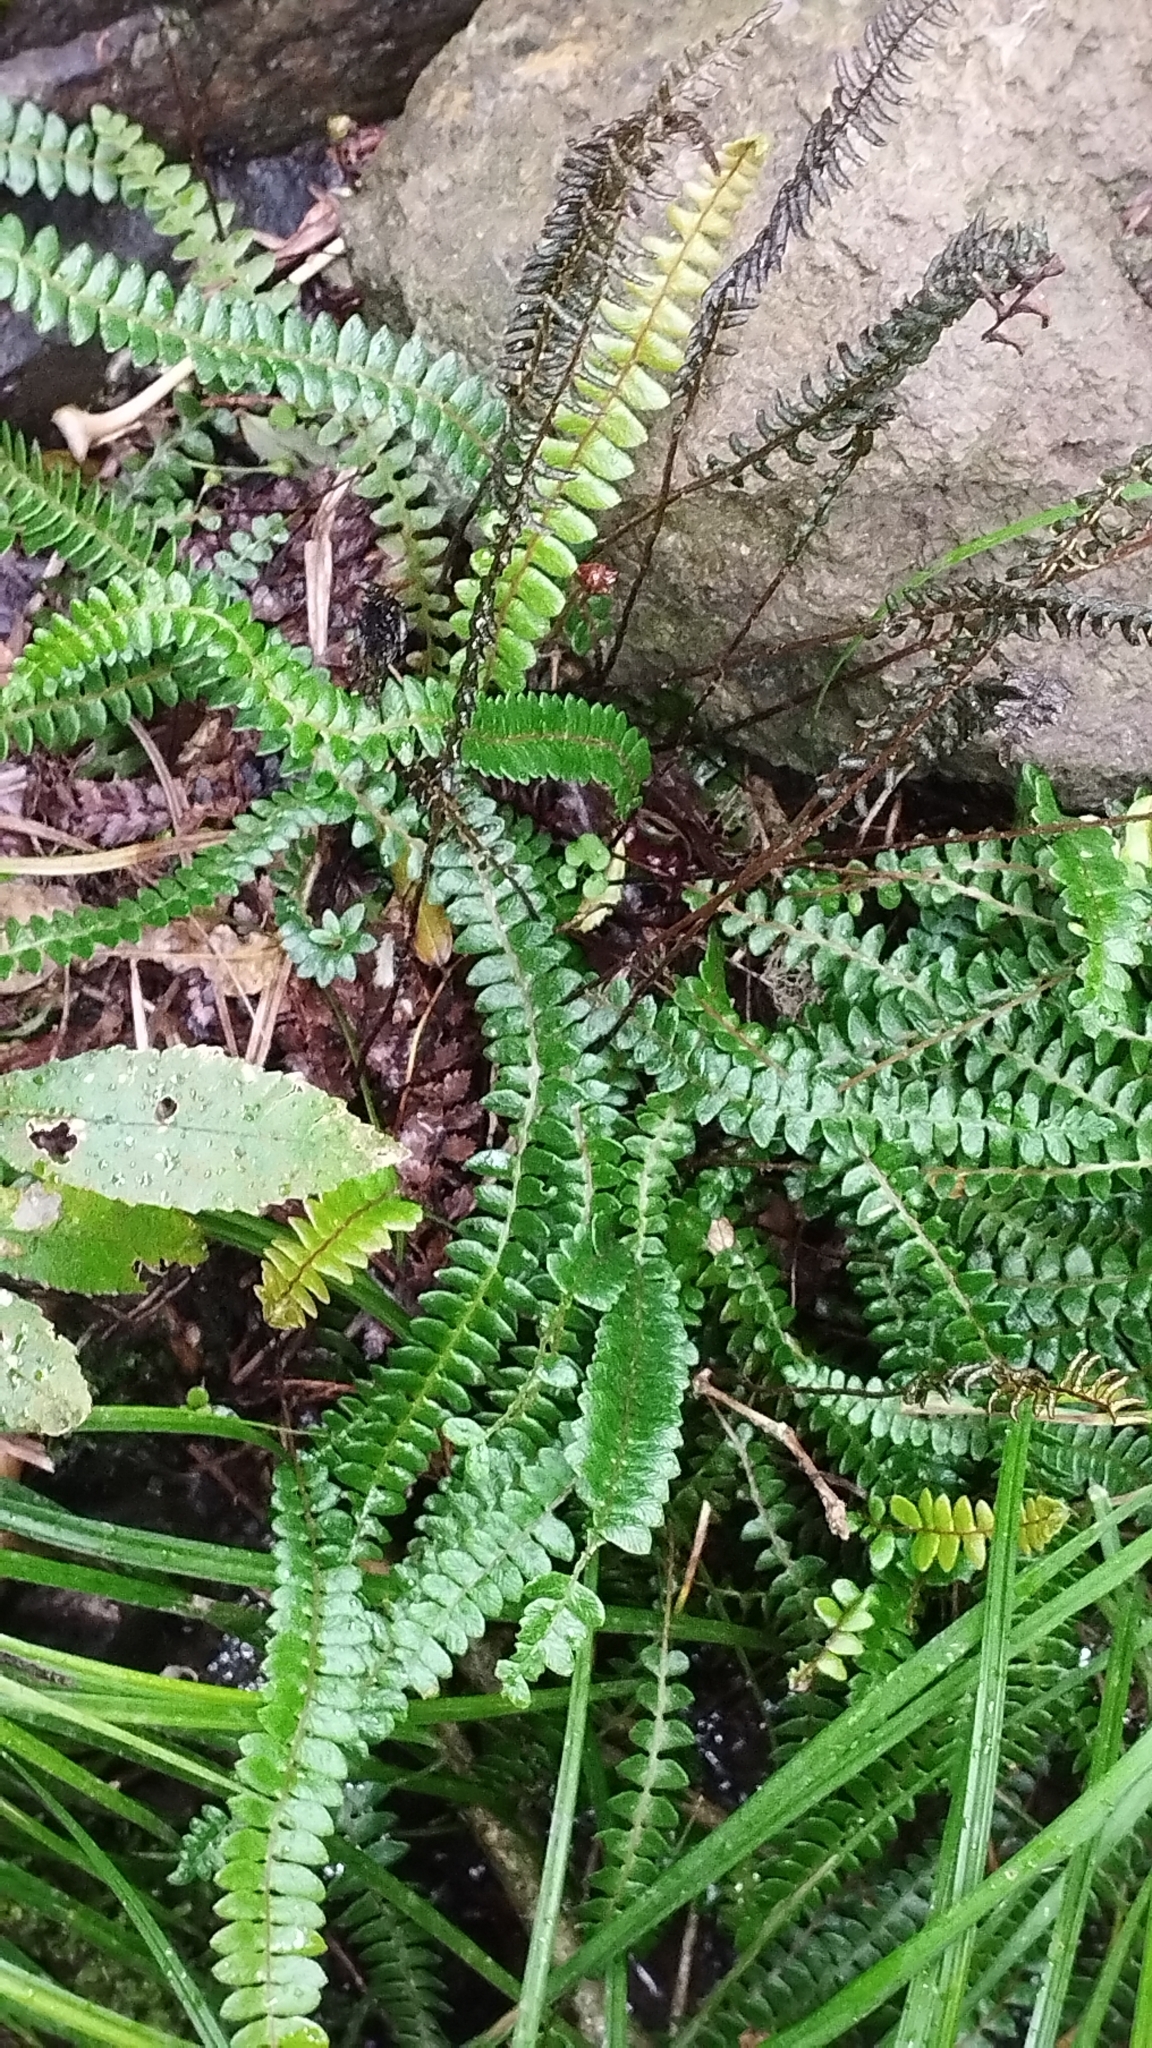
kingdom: Plantae
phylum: Tracheophyta
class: Polypodiopsida
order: Polypodiales
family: Blechnaceae
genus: Austroblechnum
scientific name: Austroblechnum penna-marina
